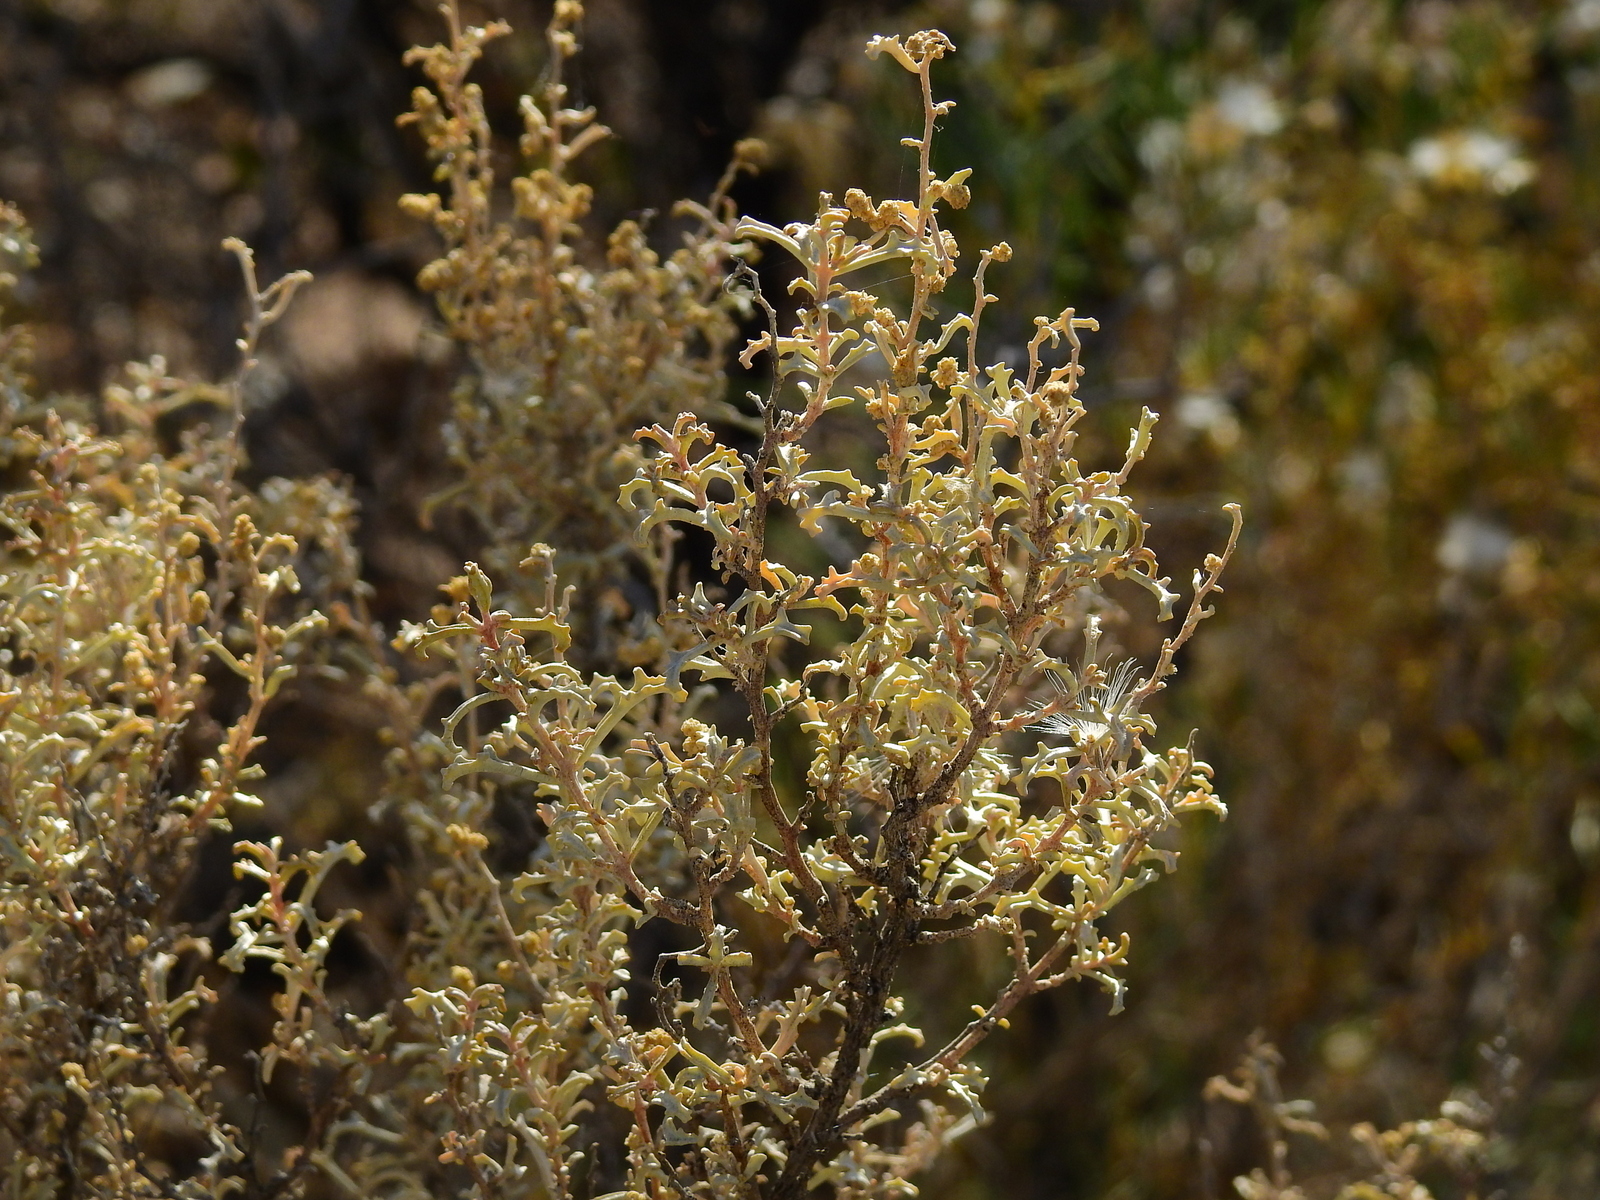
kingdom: Plantae
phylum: Tracheophyta
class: Magnoliopsida
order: Caryophyllales
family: Amaranthaceae
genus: Atriplex
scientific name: Atriplex lampa
